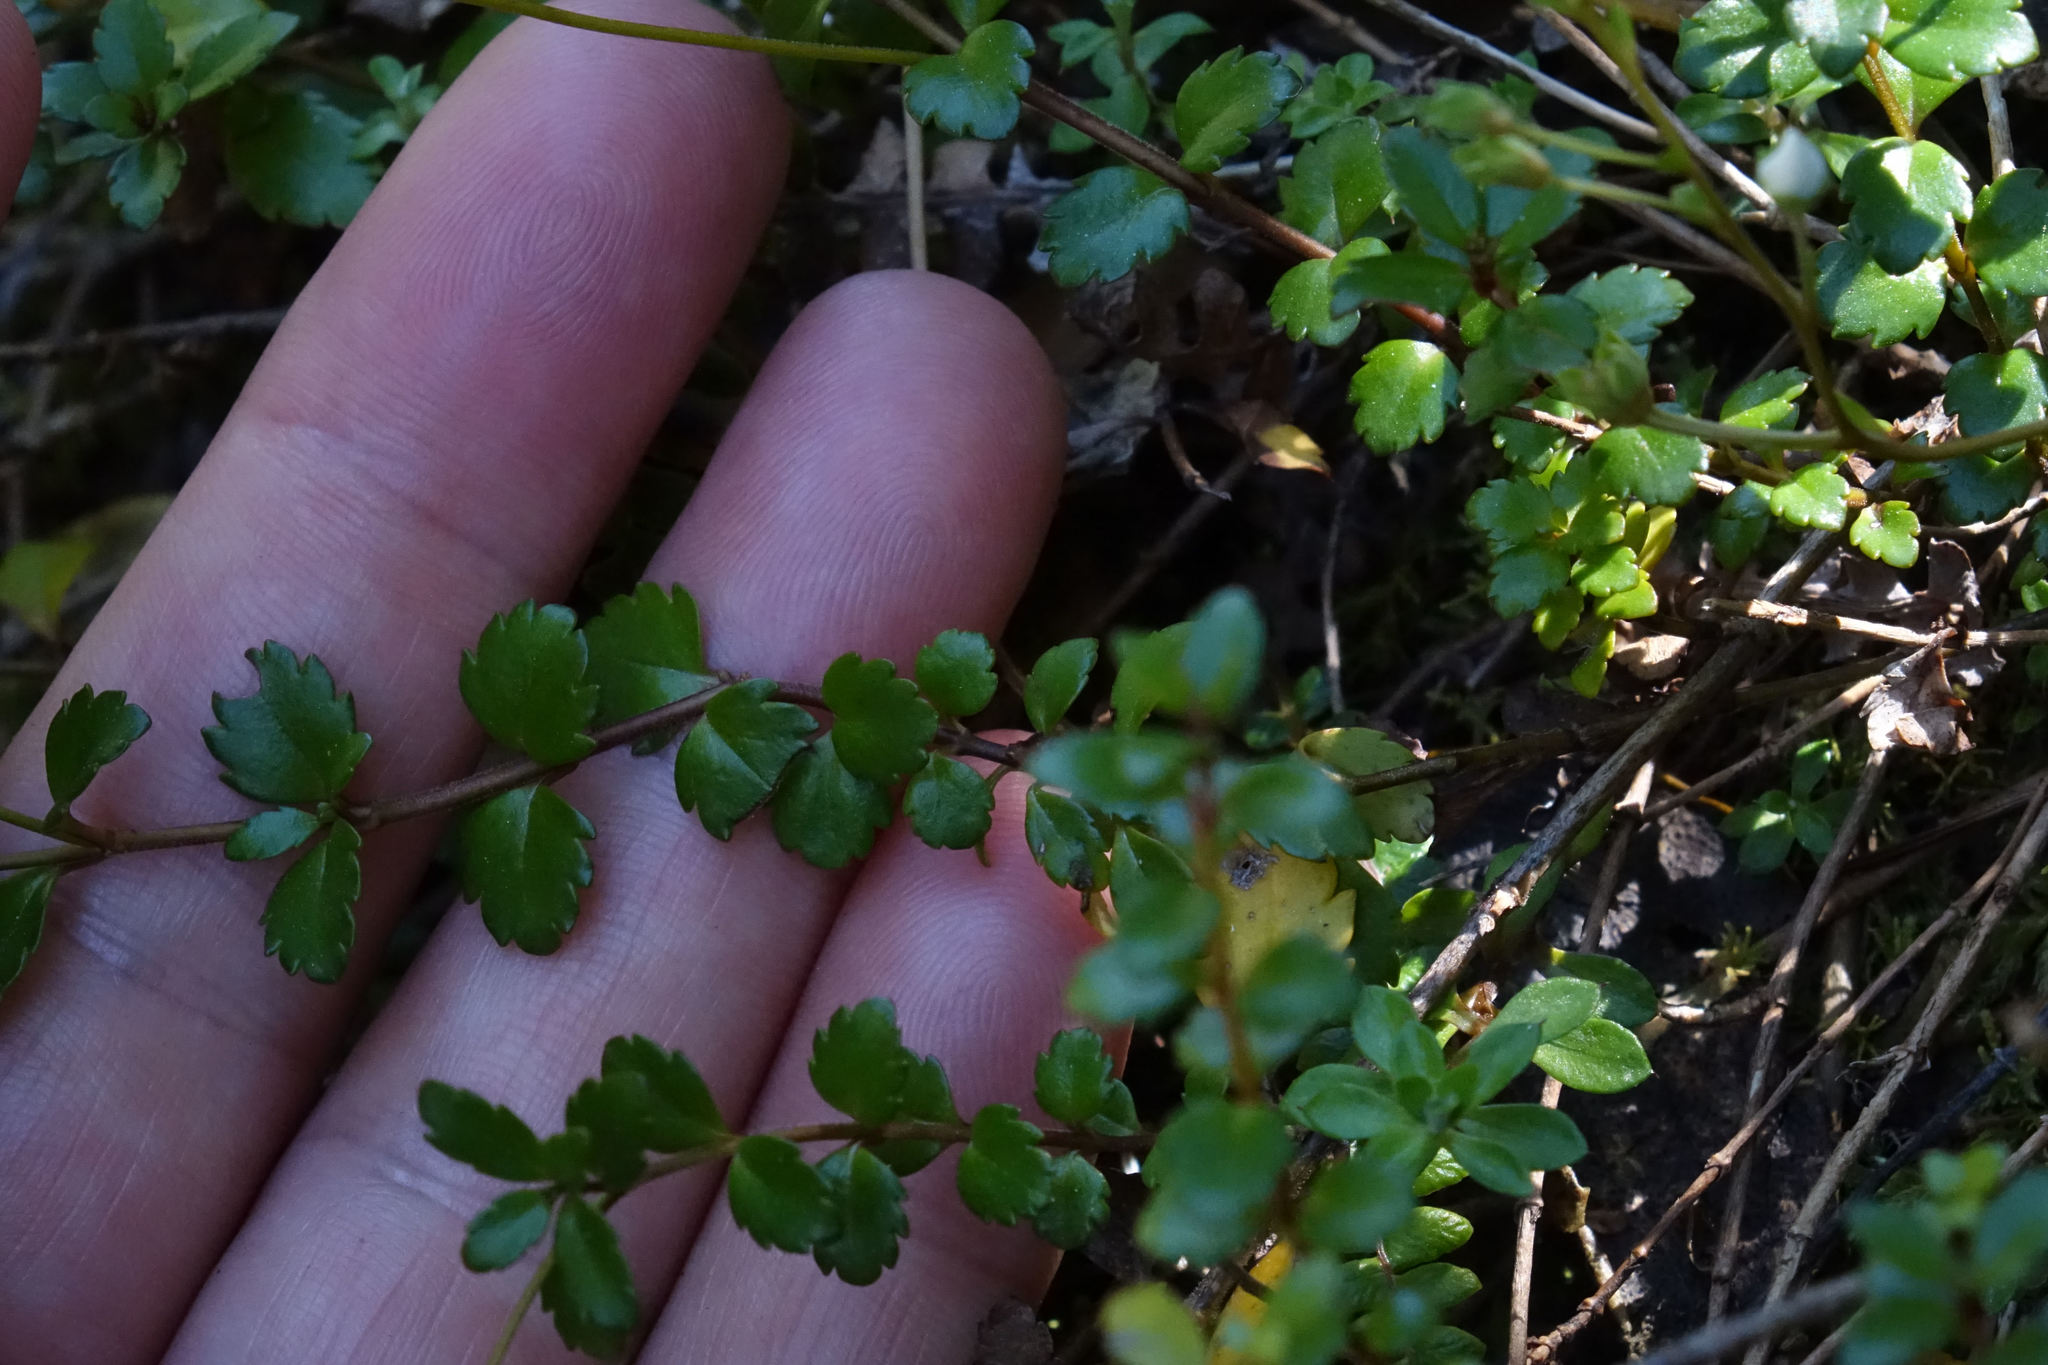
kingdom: Plantae
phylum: Tracheophyta
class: Magnoliopsida
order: Lamiales
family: Plantaginaceae
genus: Veronica
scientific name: Veronica lyallii
